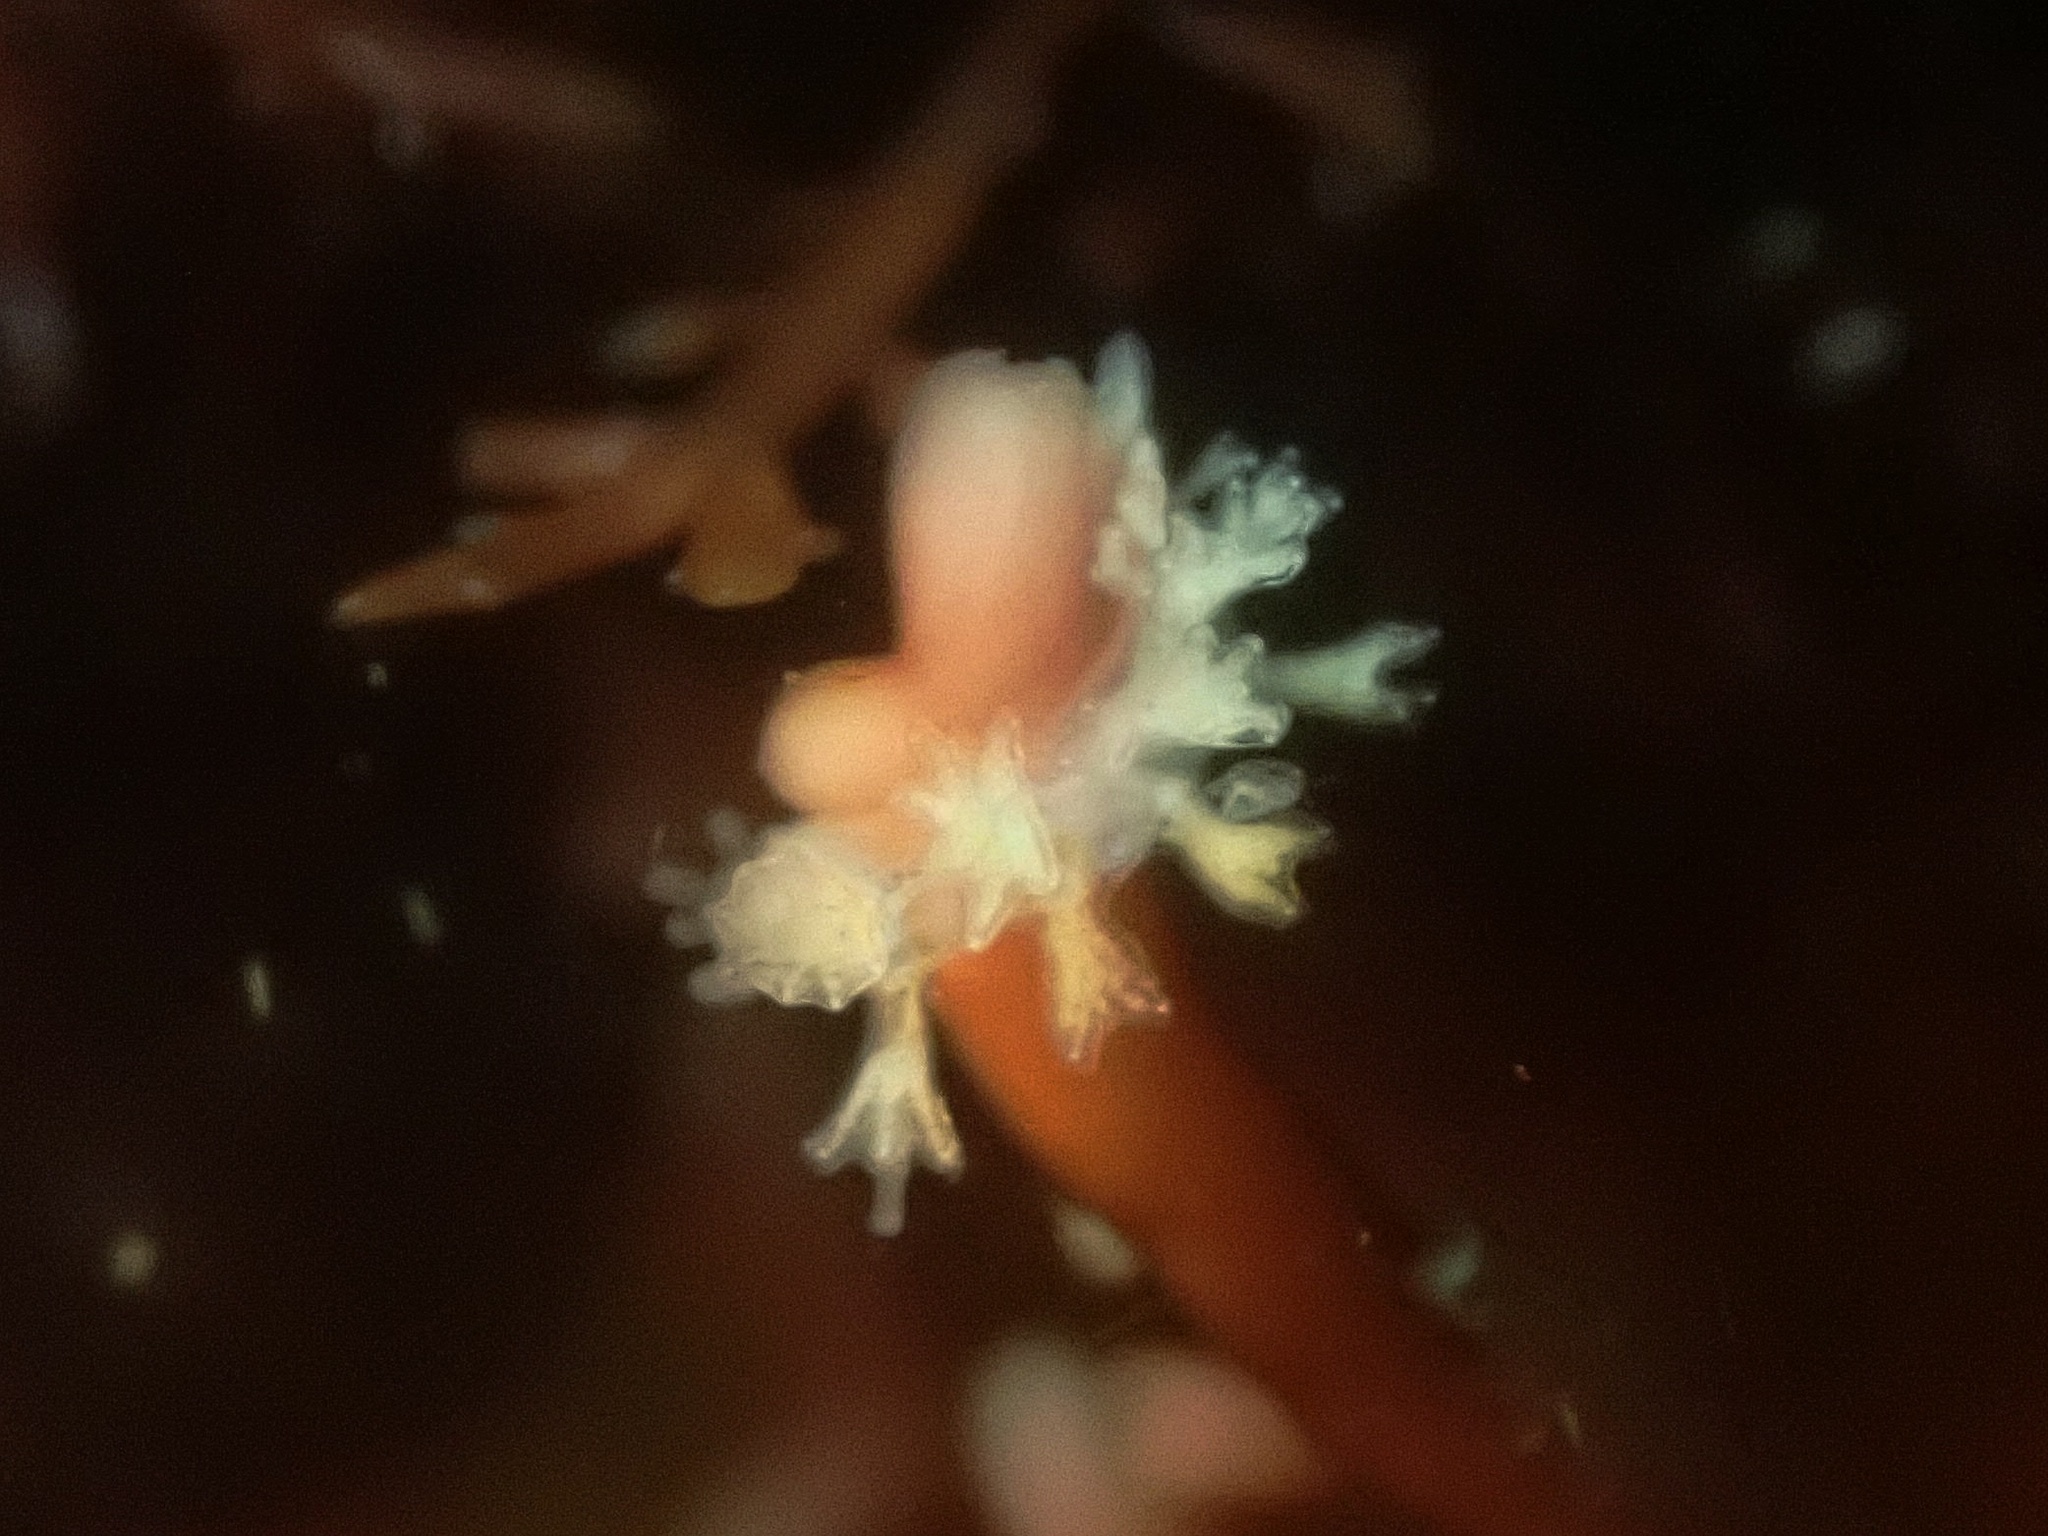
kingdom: Animalia
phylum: Mollusca
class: Gastropoda
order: Nudibranchia
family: Hancockiidae
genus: Hancockia
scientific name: Hancockia californica
